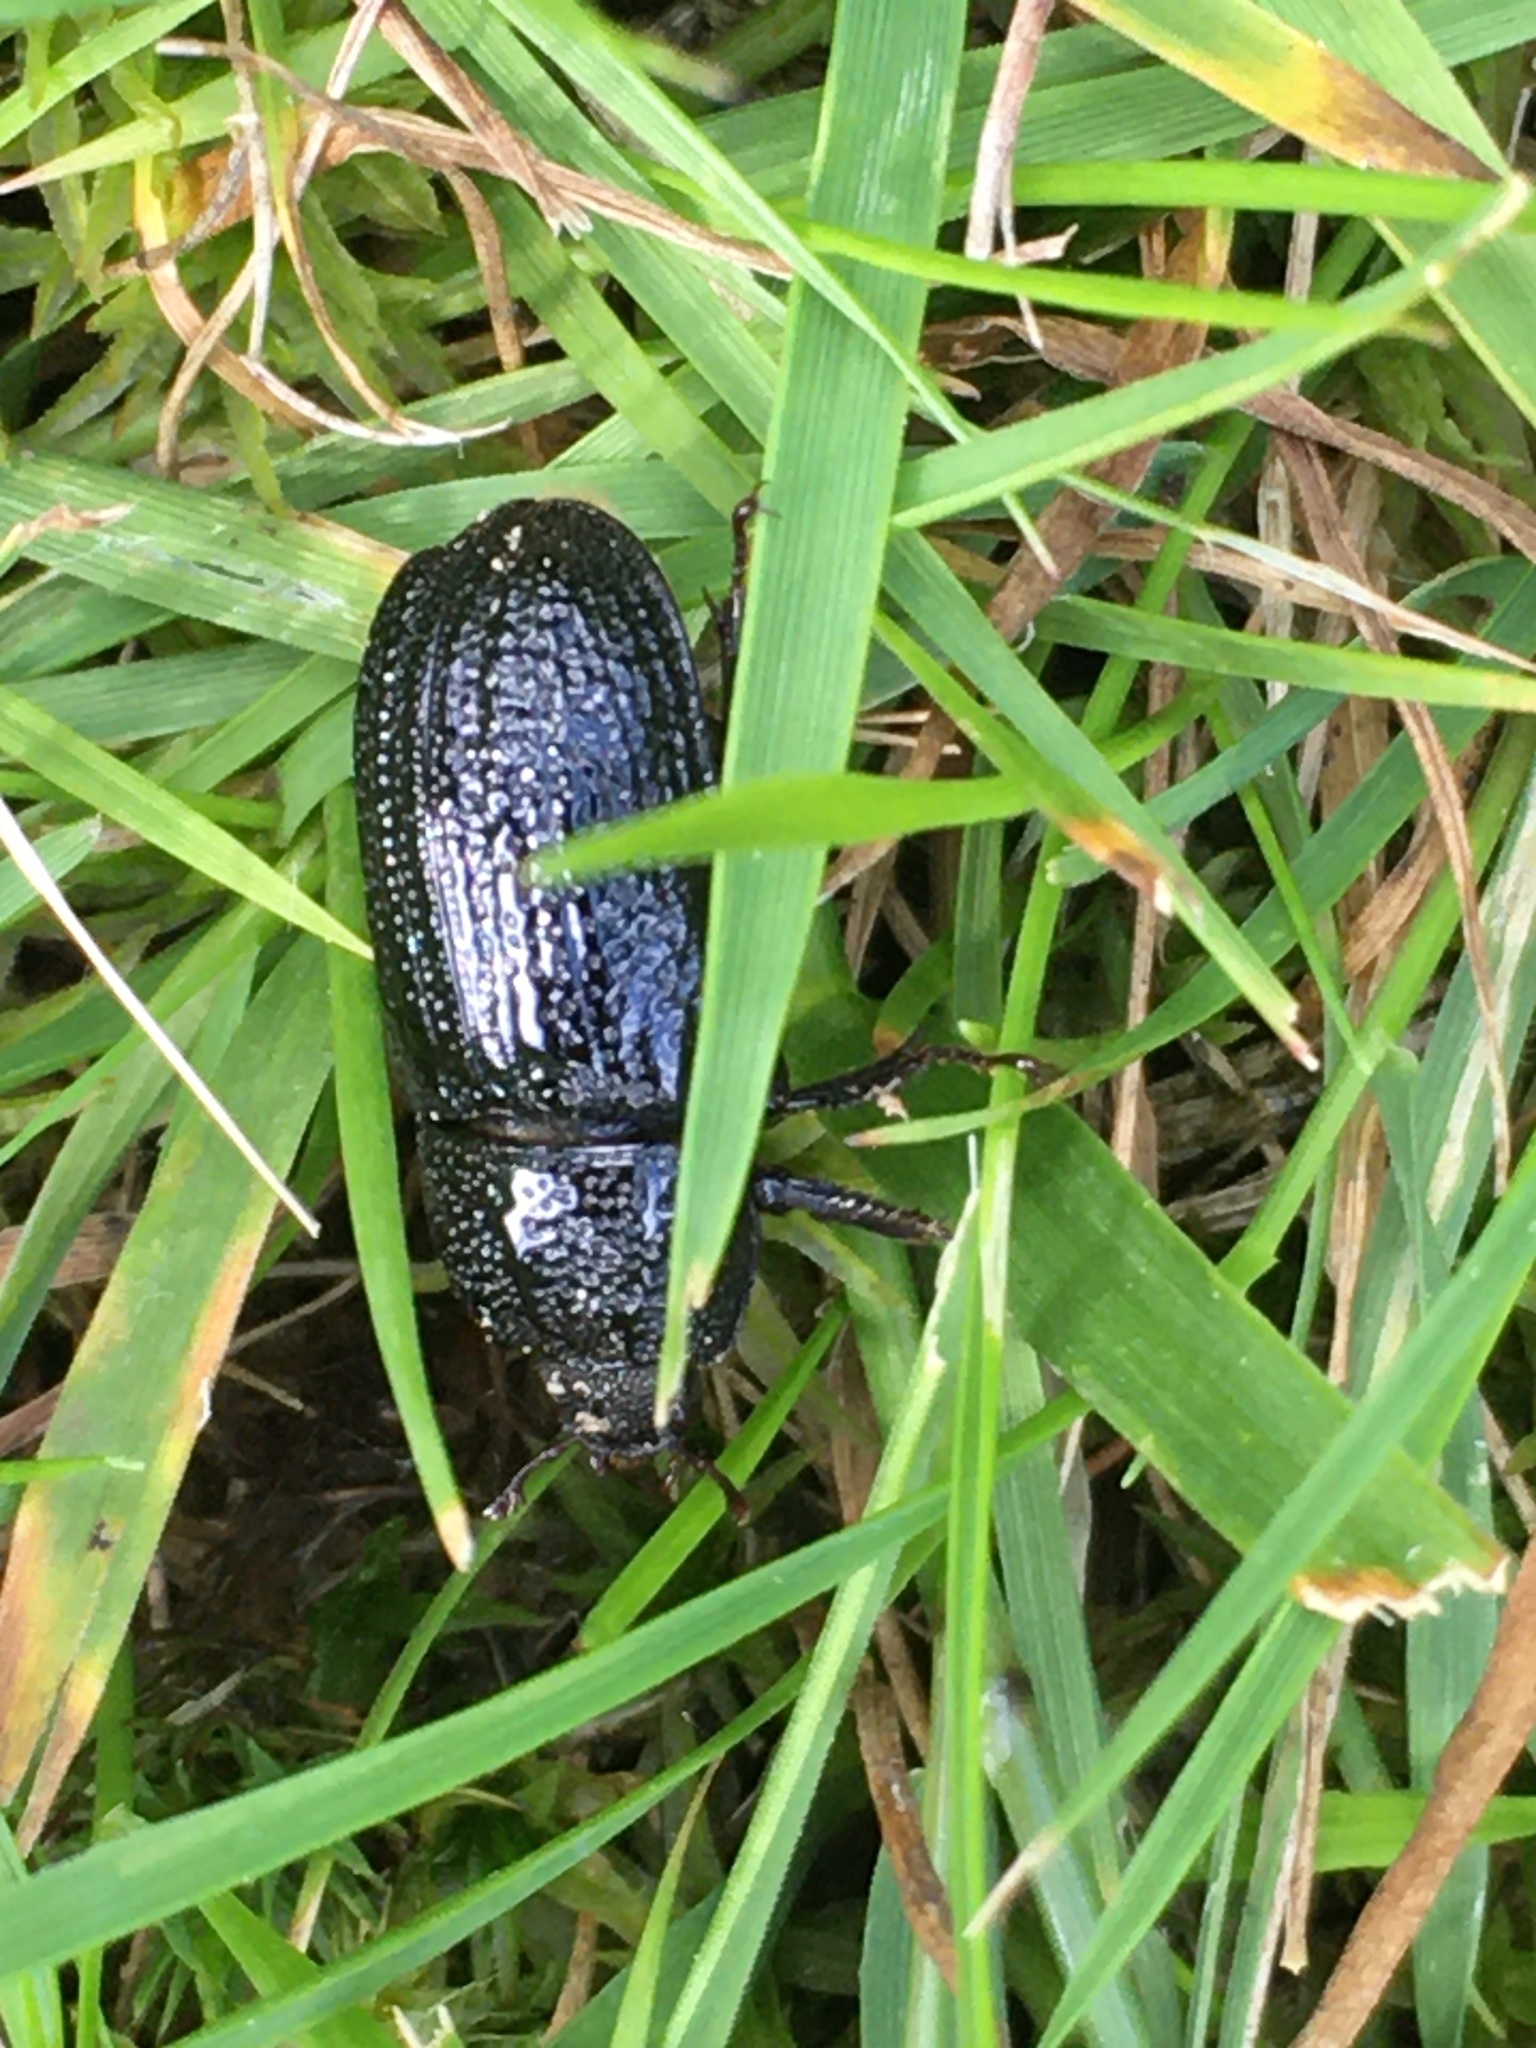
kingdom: Animalia
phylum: Arthropoda
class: Insecta
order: Coleoptera
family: Lucanidae
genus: Sinodendron
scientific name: Sinodendron cylindricum
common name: Rhinoceros beetle
